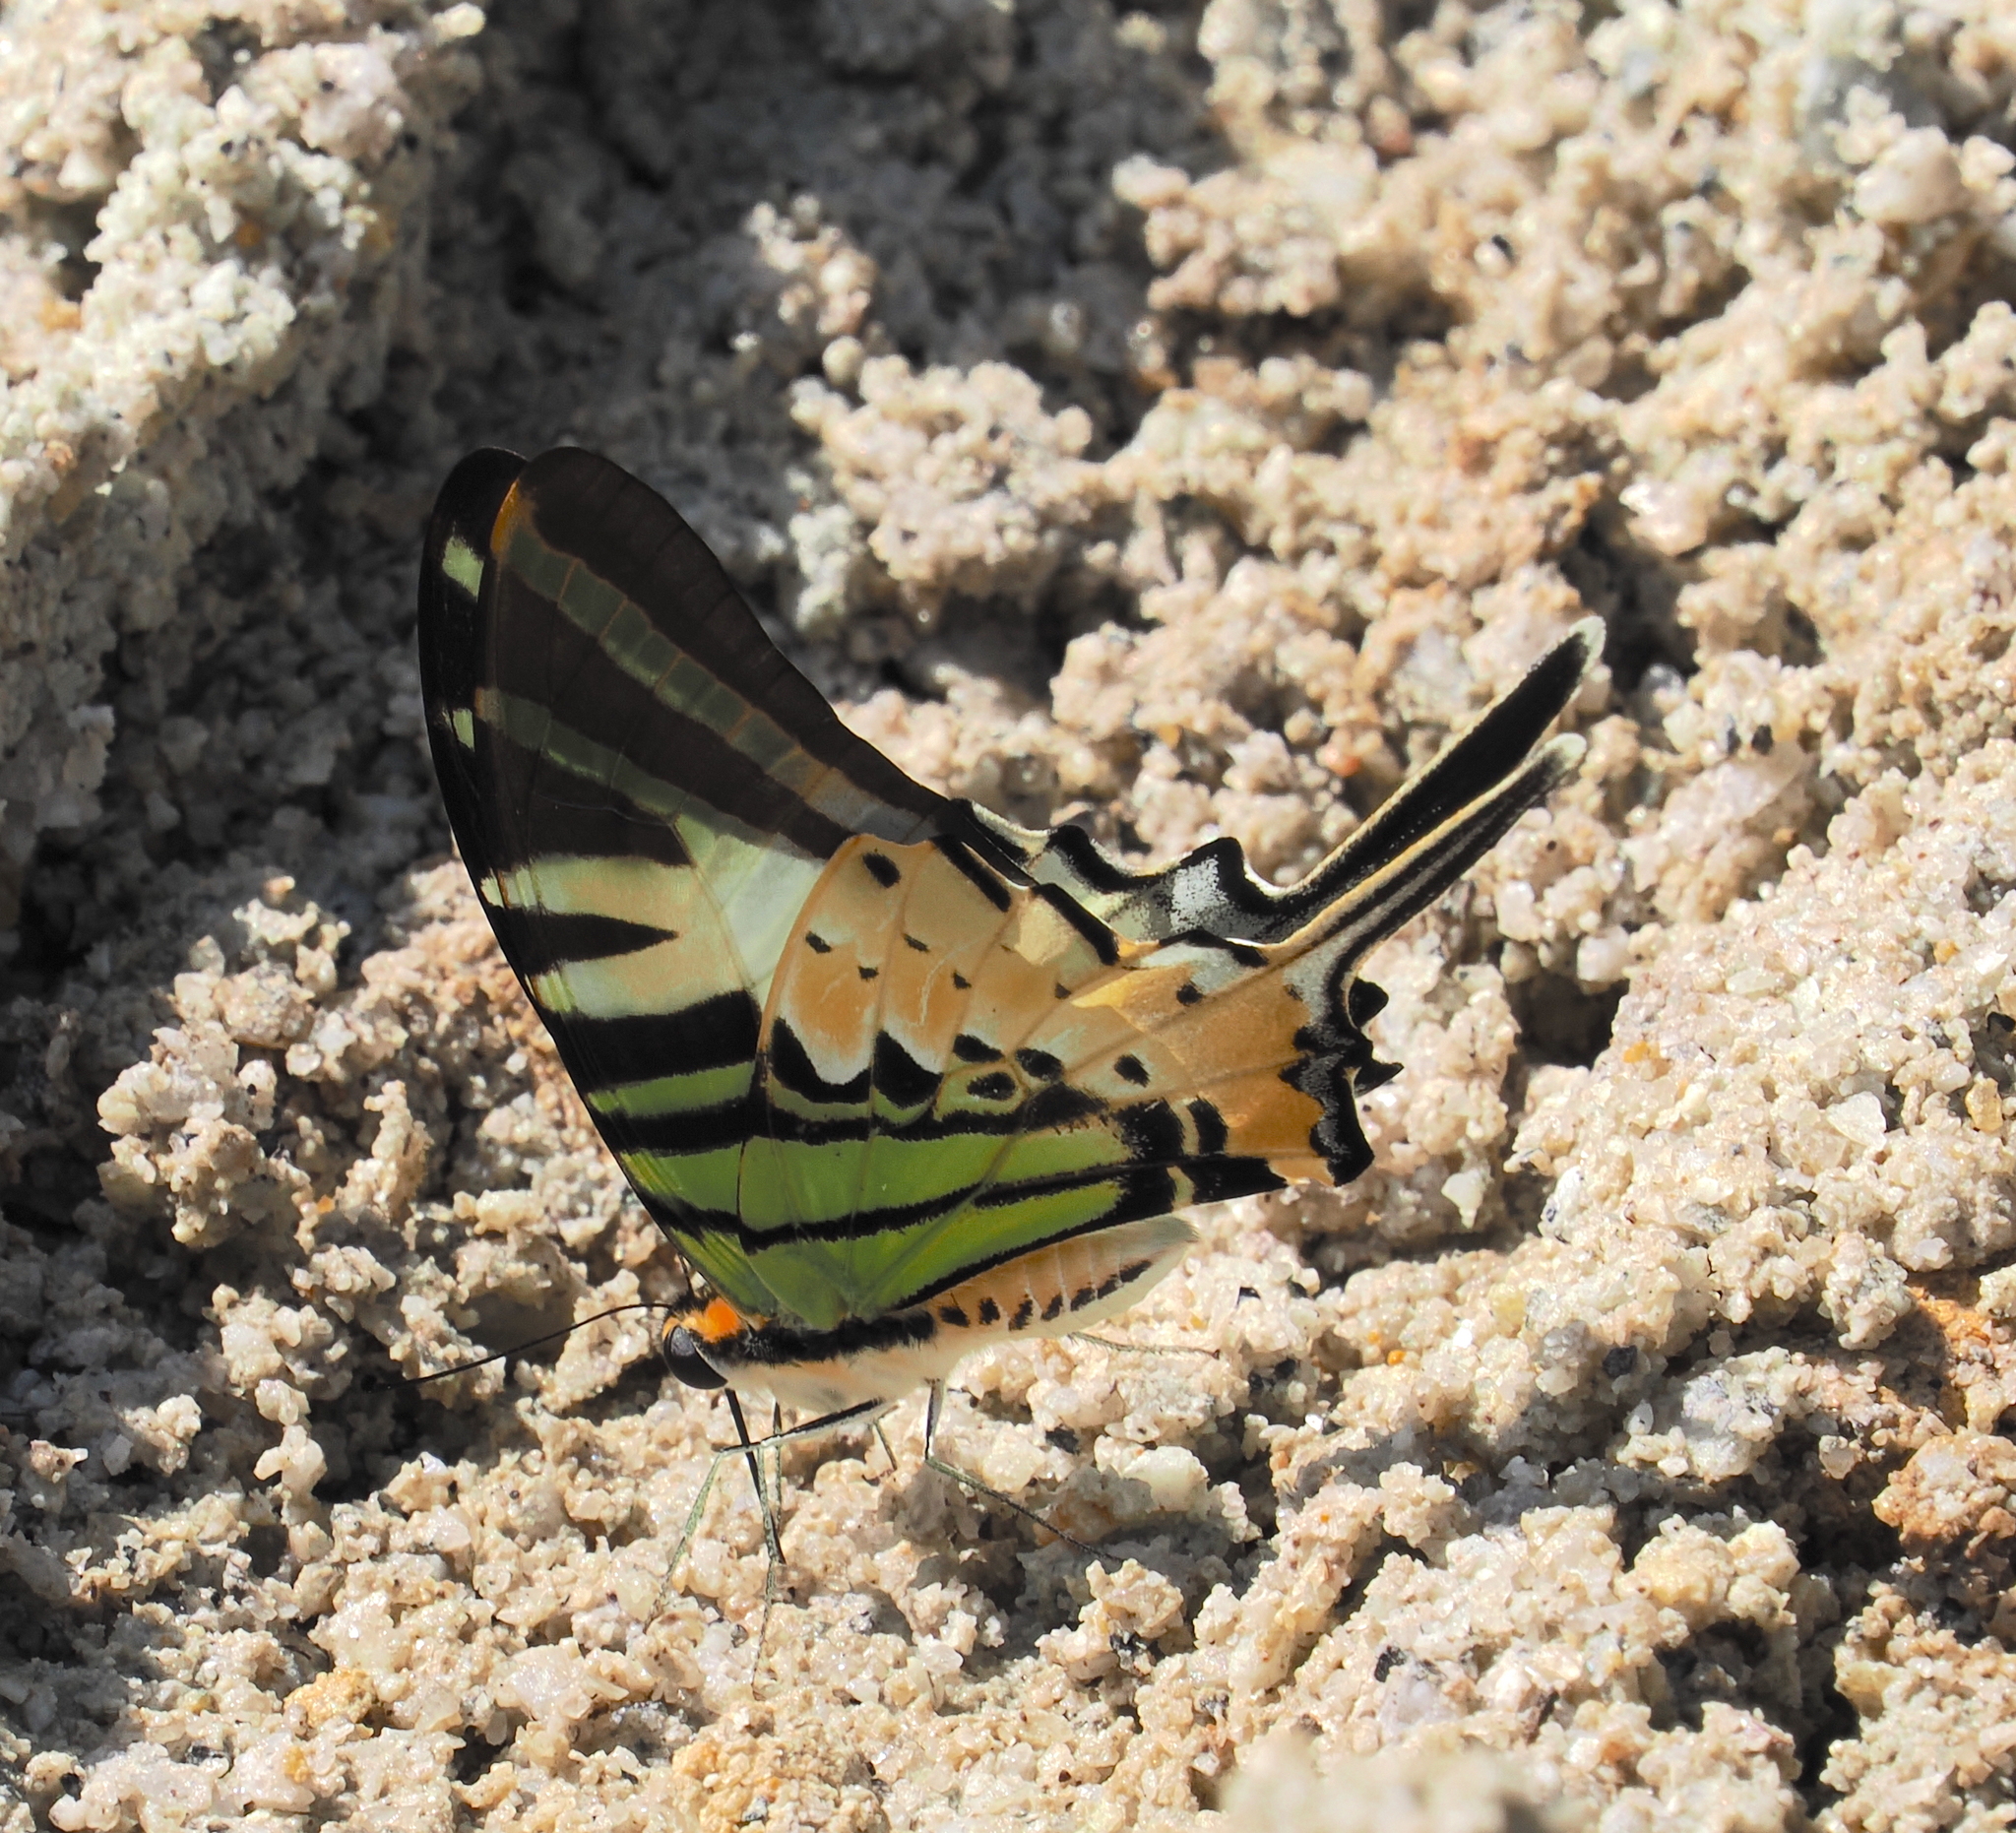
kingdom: Animalia
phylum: Arthropoda
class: Insecta
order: Lepidoptera
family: Papilionidae
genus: Graphium
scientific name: Graphium antiphates
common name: Fivebar swordtail
